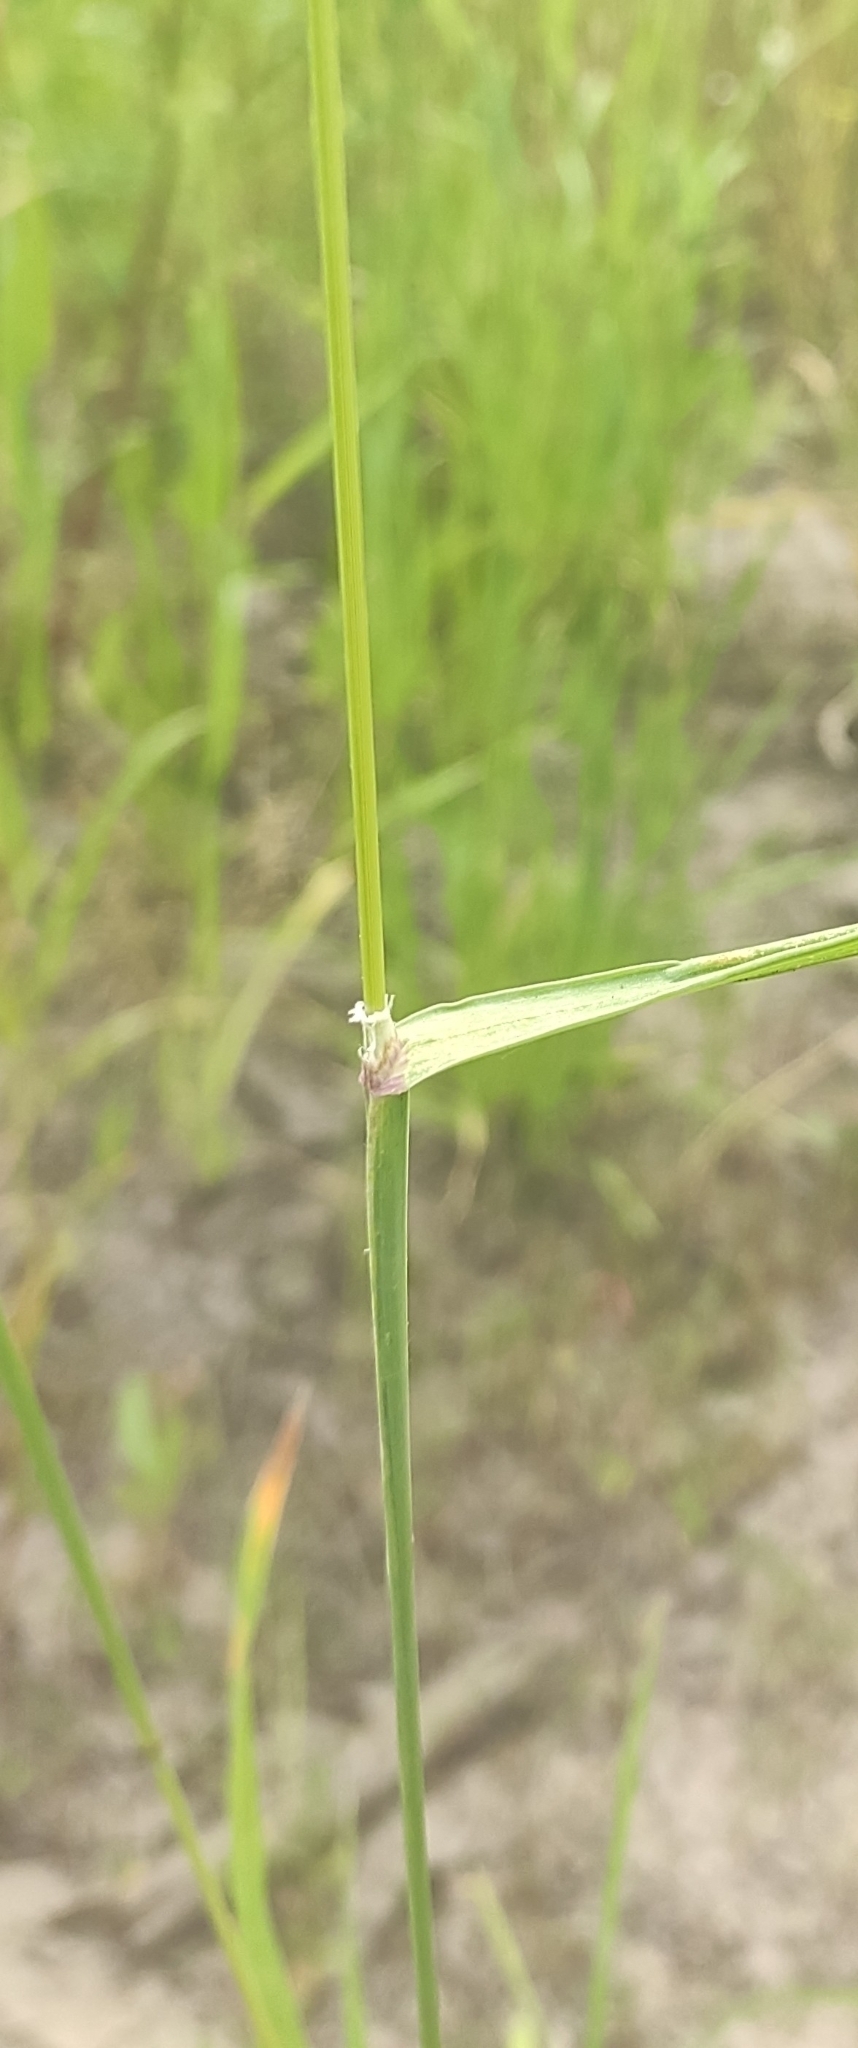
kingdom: Plantae
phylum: Tracheophyta
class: Liliopsida
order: Poales
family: Poaceae
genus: Dactylis
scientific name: Dactylis glomerata
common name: Orchardgrass
